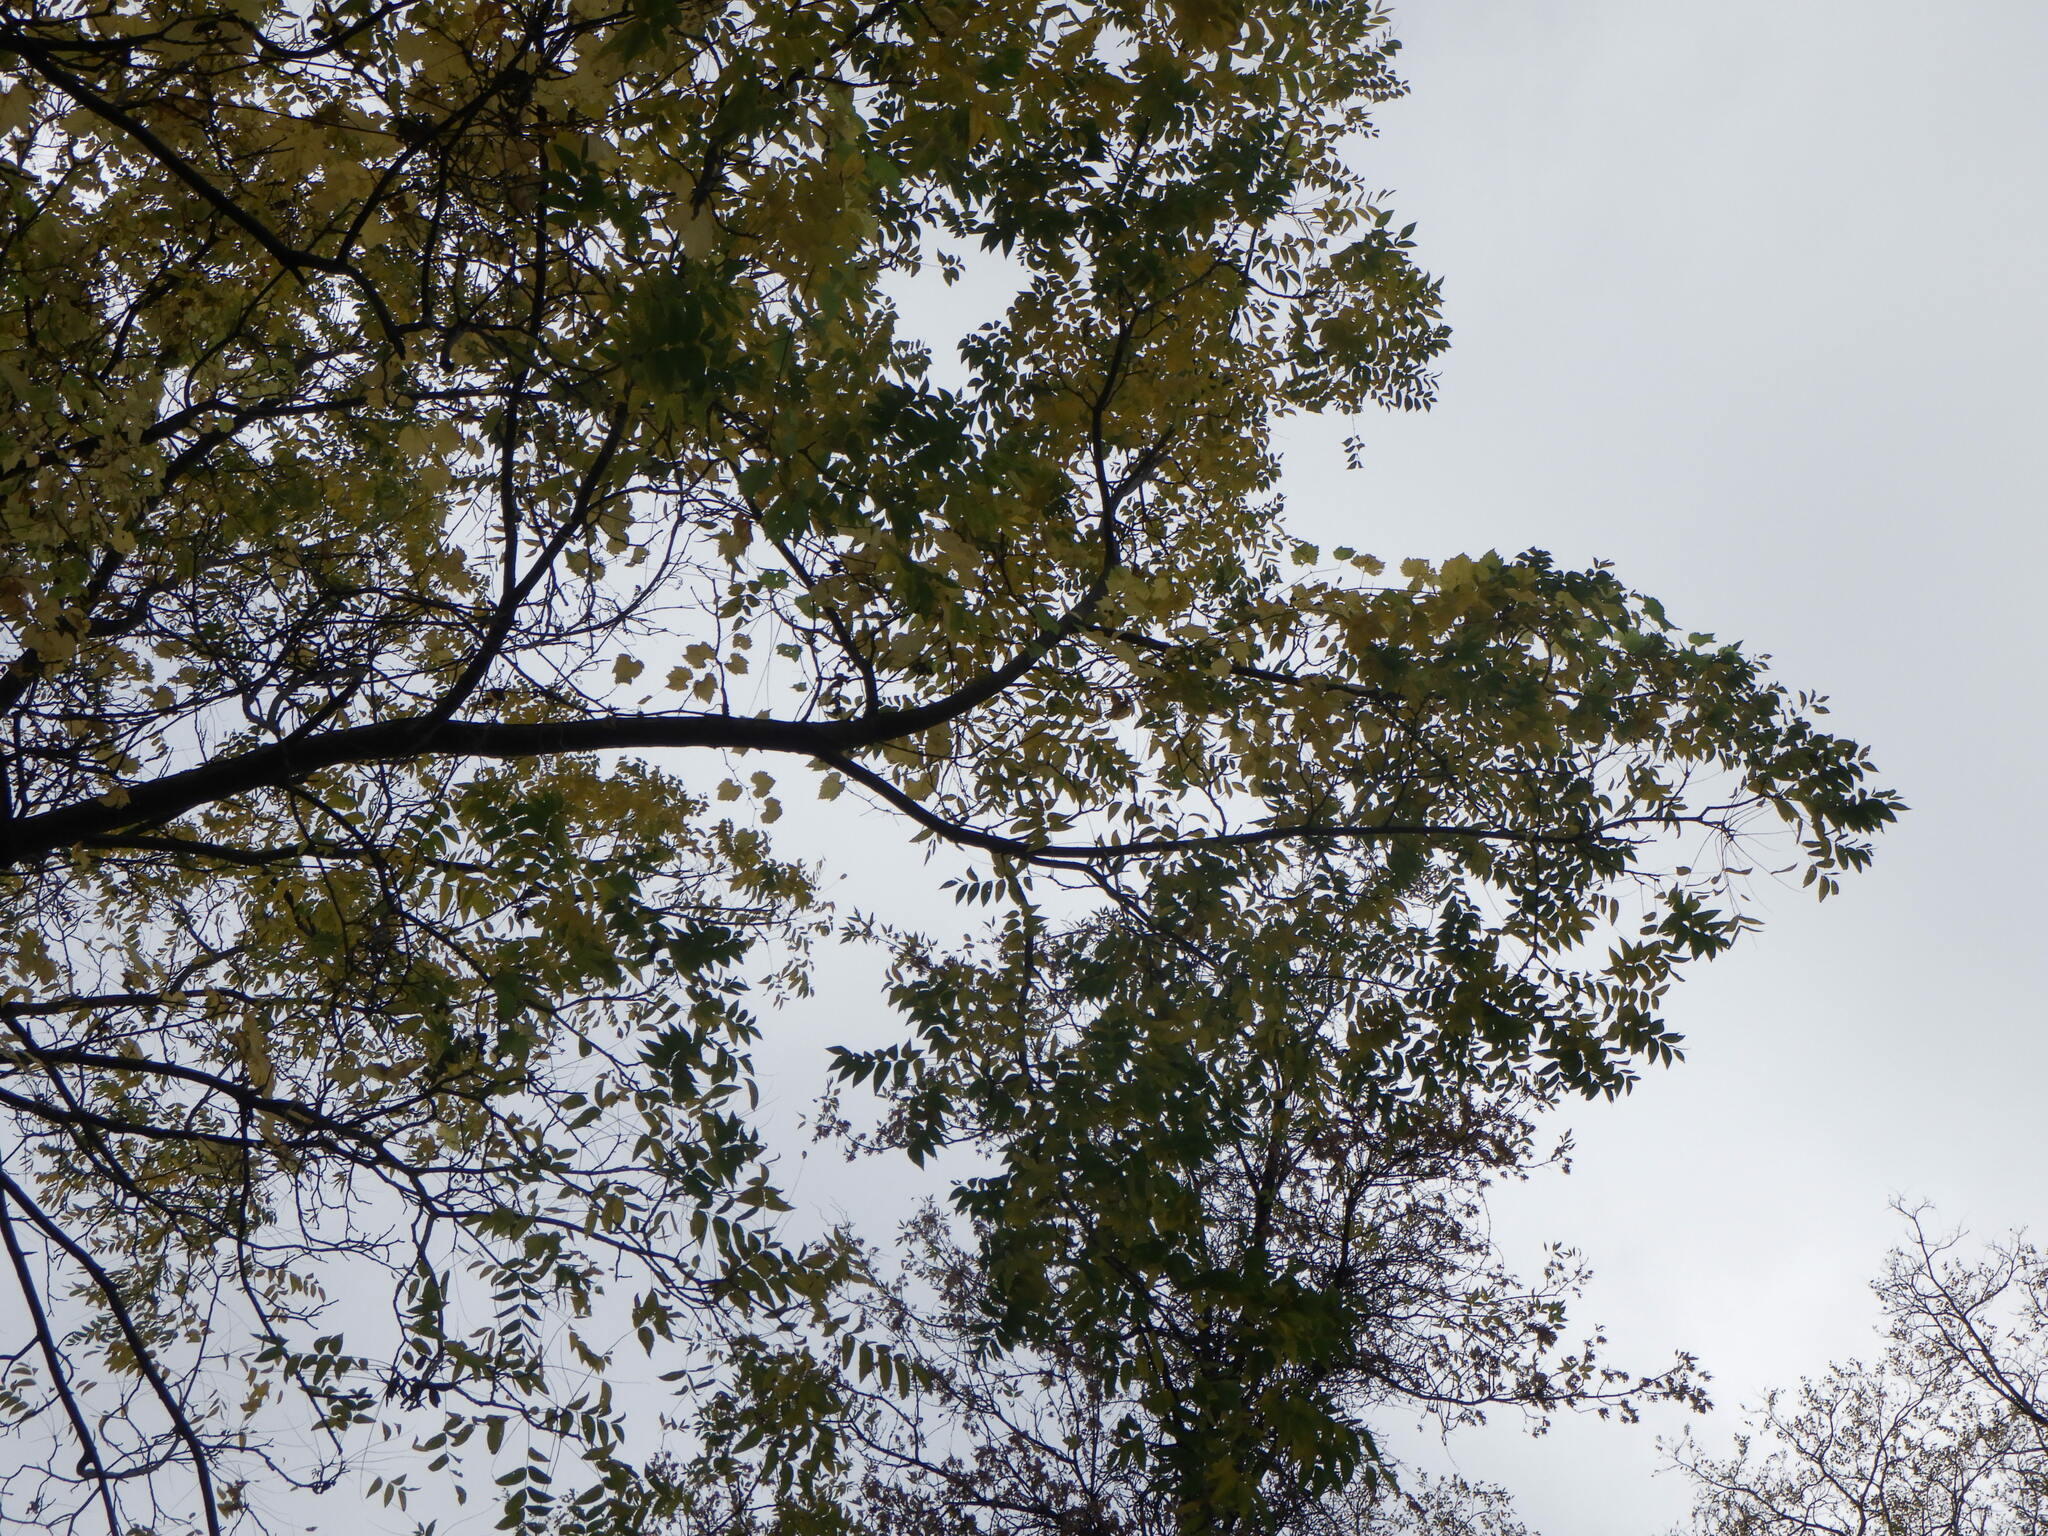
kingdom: Plantae
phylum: Tracheophyta
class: Magnoliopsida
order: Fagales
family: Juglandaceae
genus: Juglans
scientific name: Juglans nigra
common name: Black walnut
